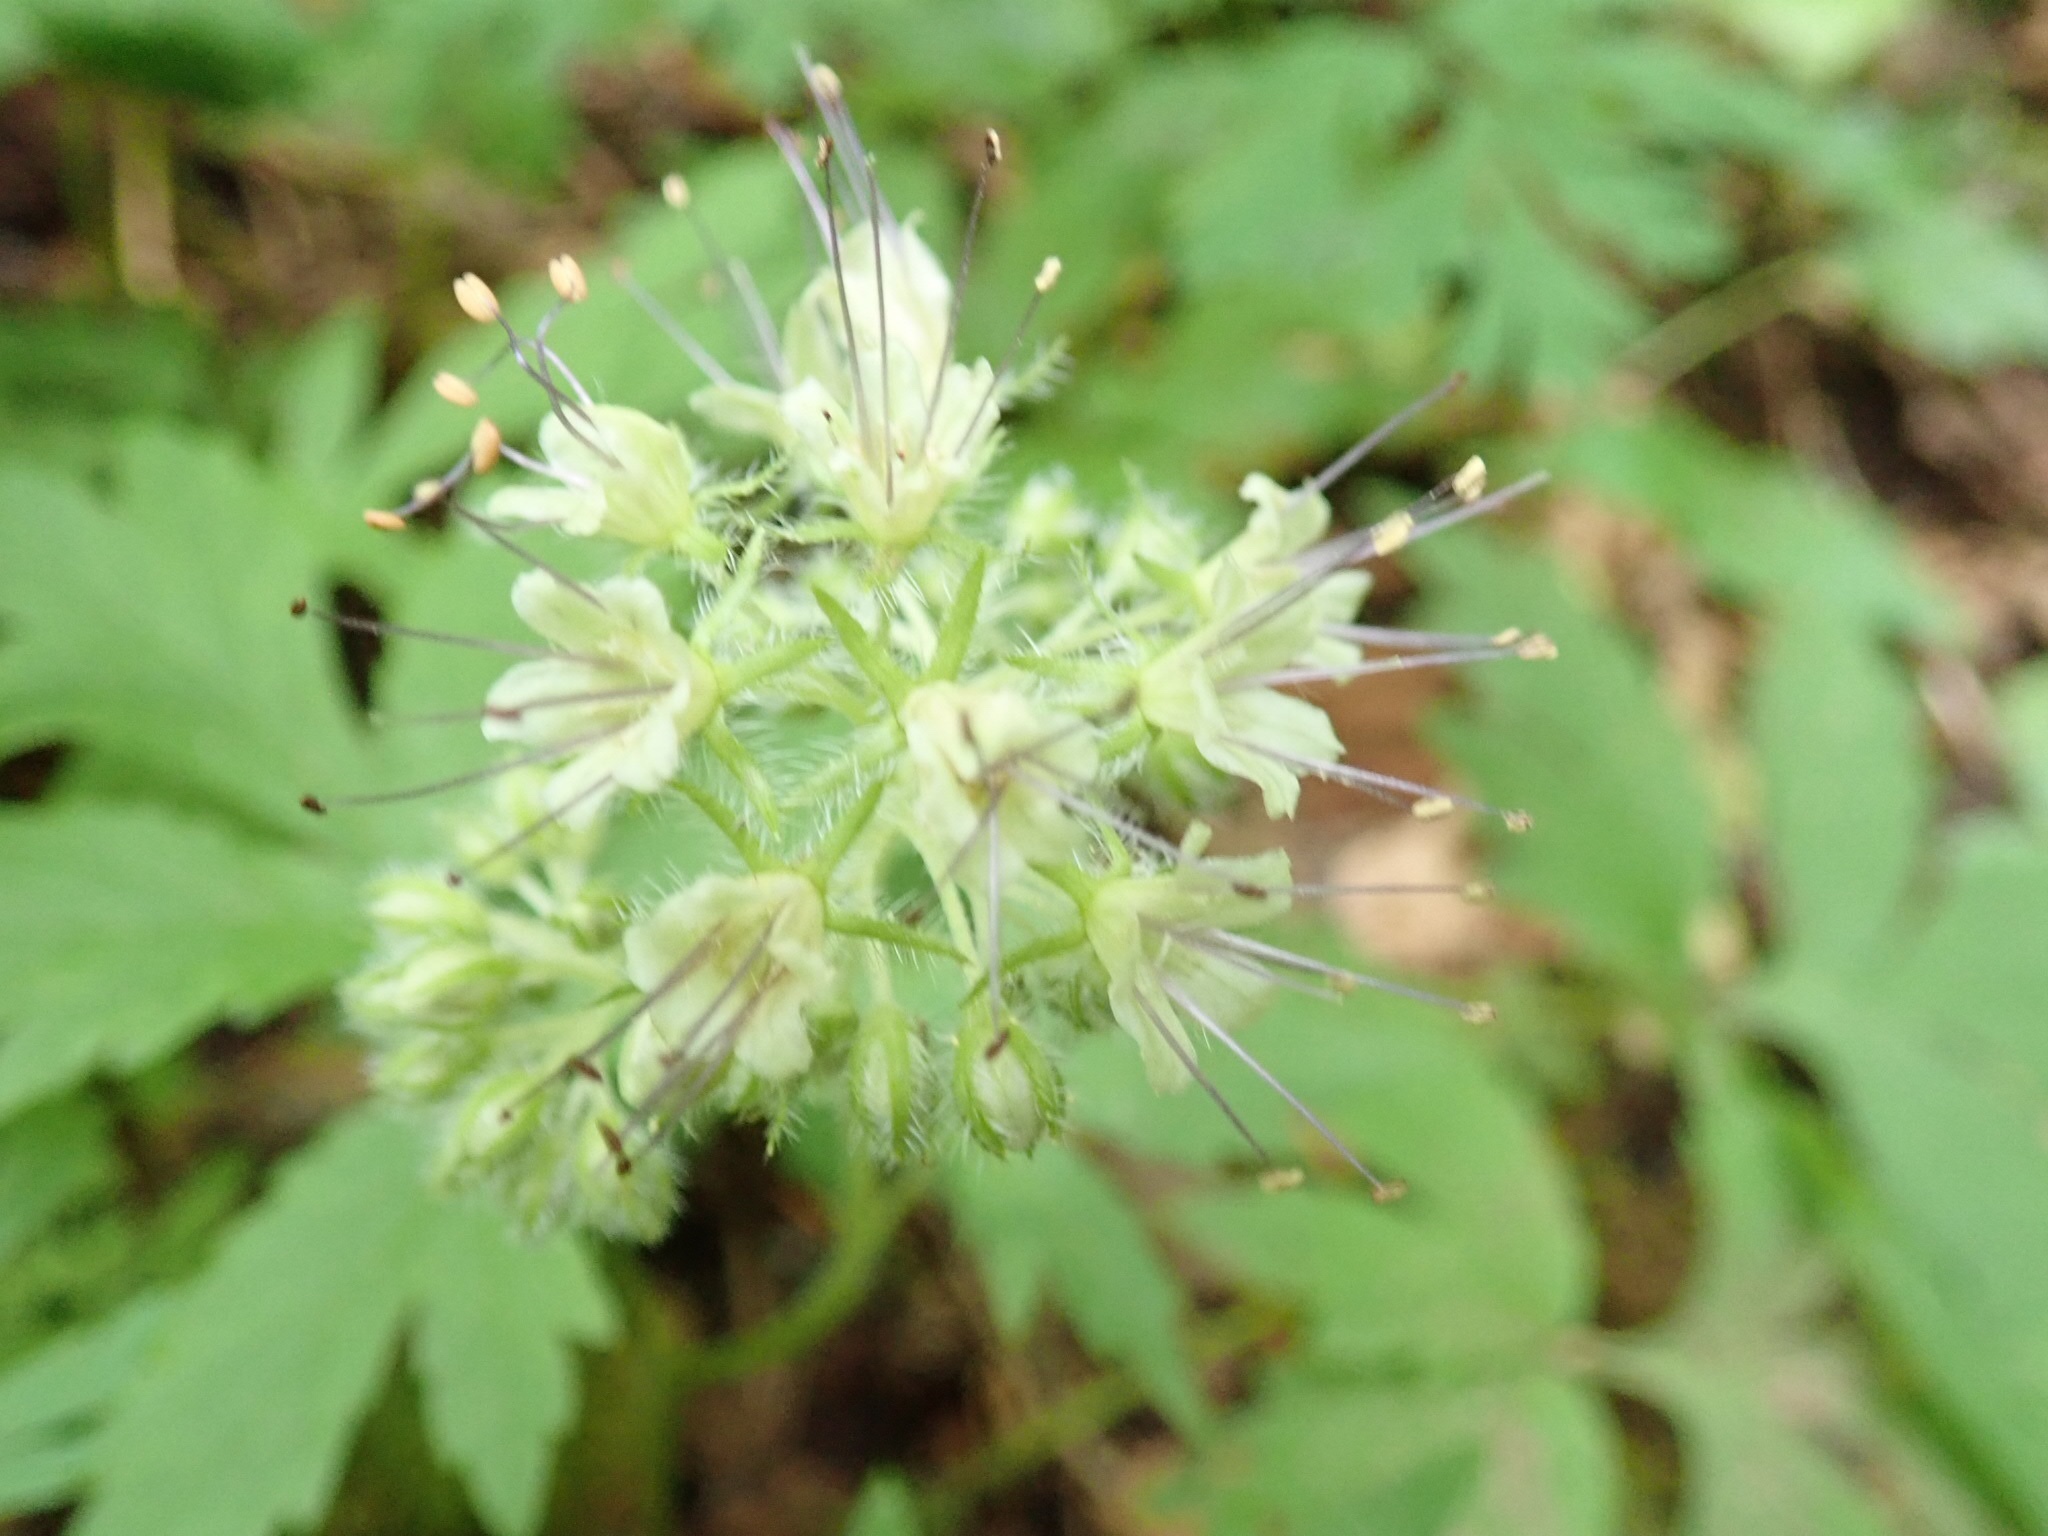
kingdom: Plantae
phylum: Tracheophyta
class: Magnoliopsida
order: Boraginales
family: Hydrophyllaceae
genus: Hydrophyllum
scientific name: Hydrophyllum tenuipes
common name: Pacific waterleaf
